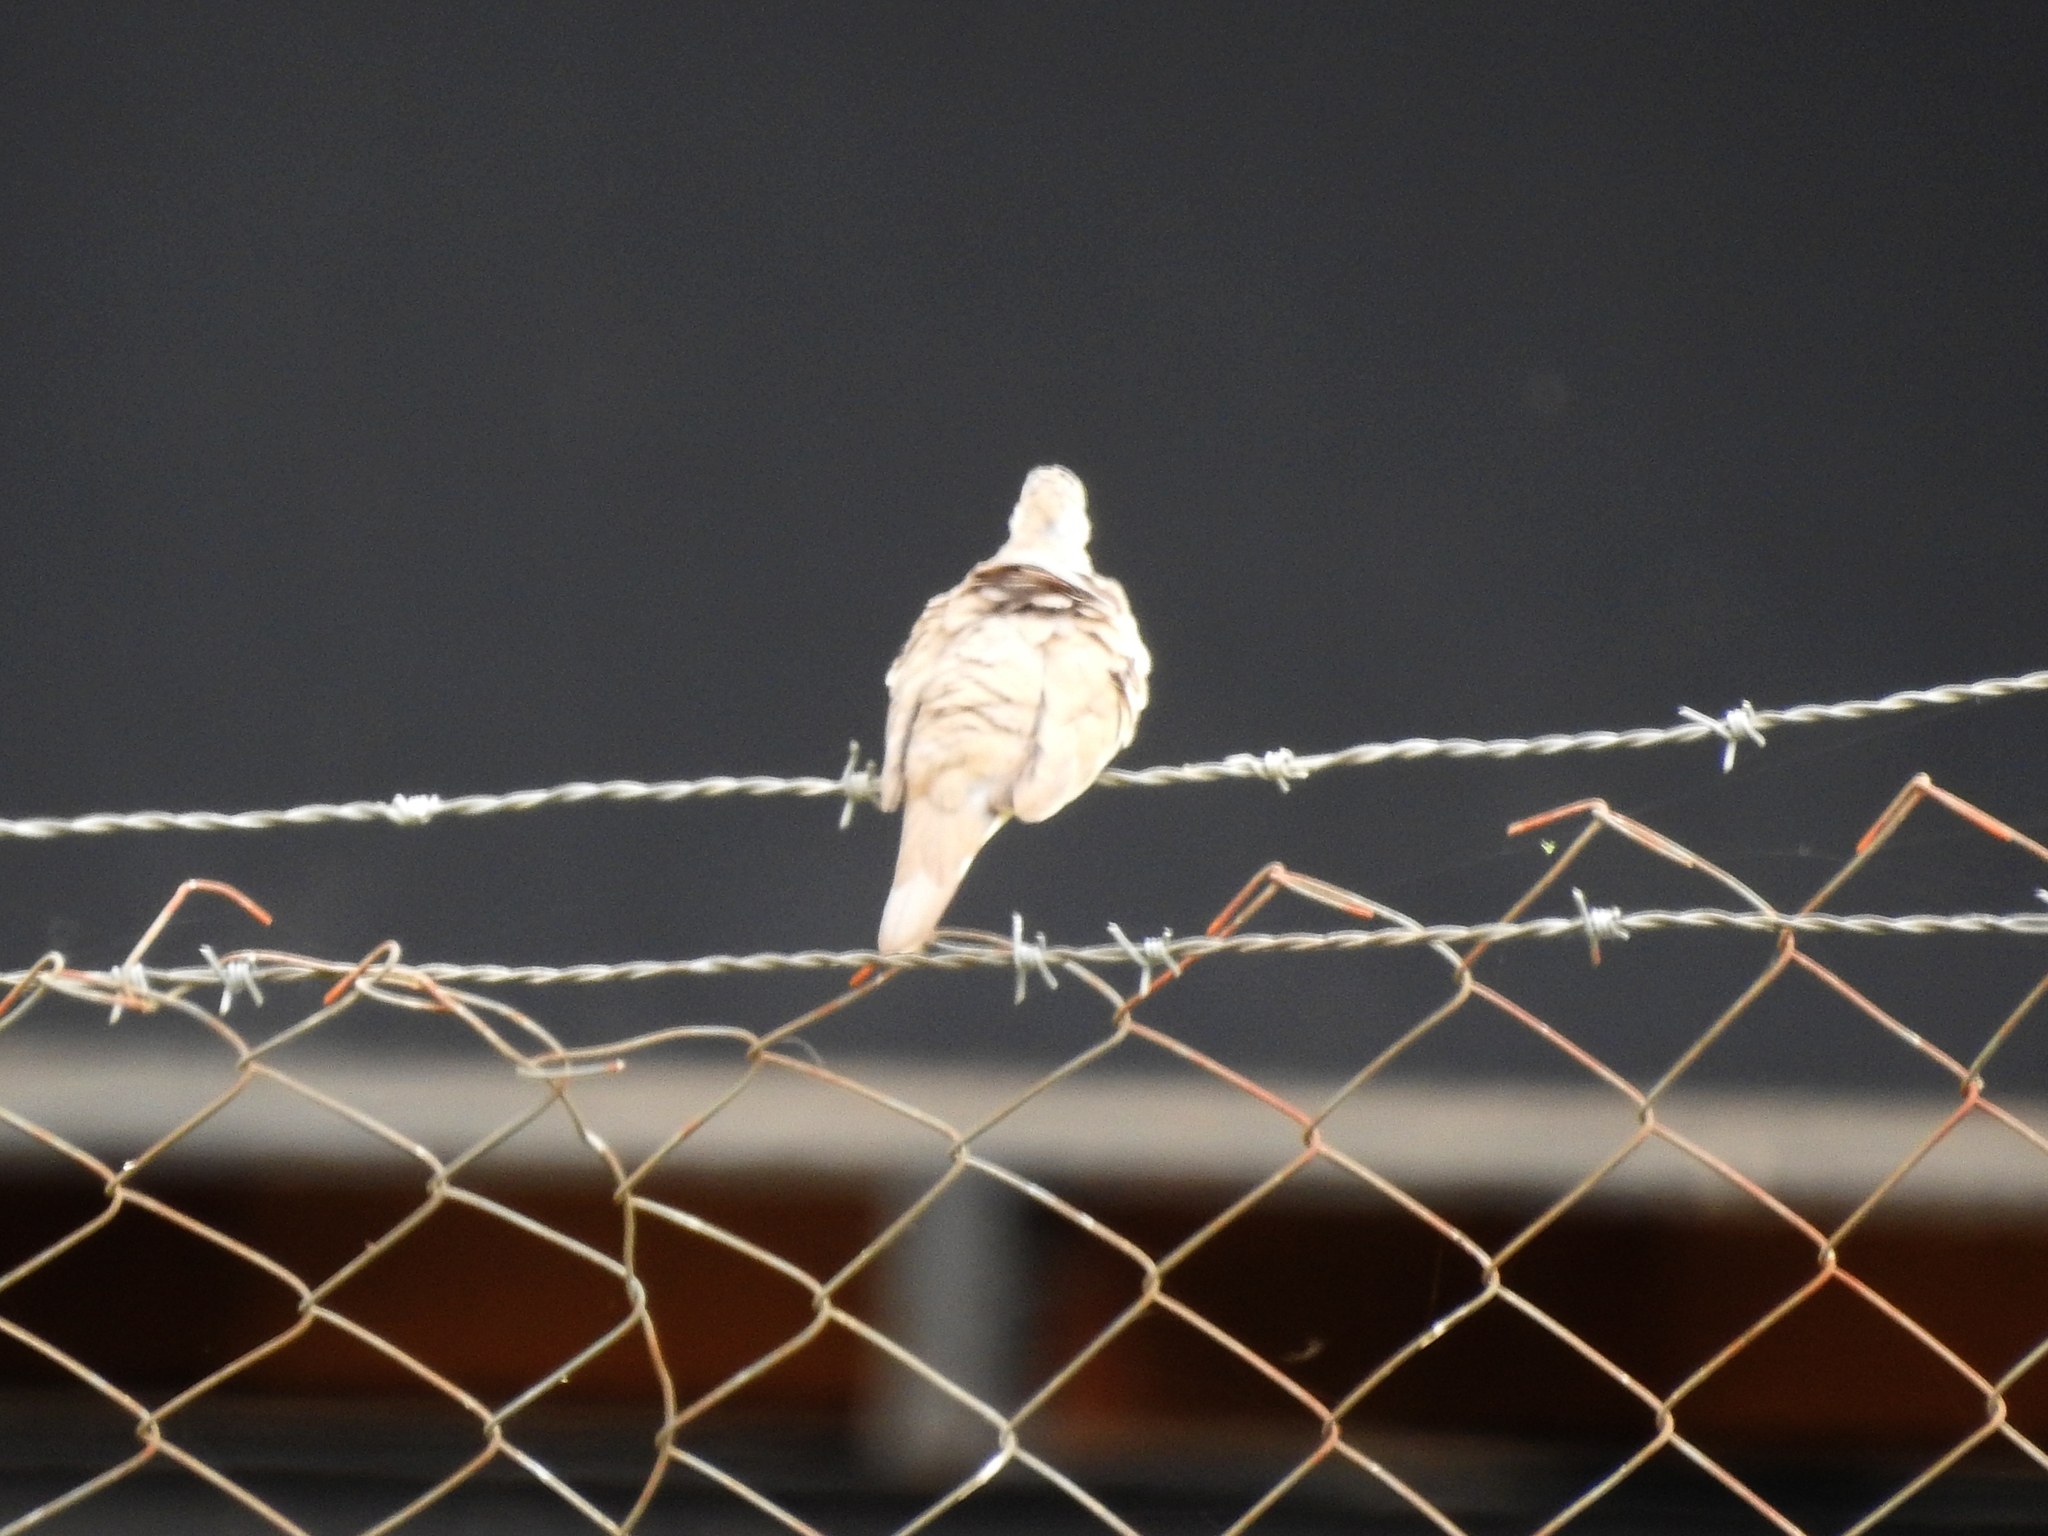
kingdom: Animalia
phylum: Chordata
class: Aves
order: Columbiformes
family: Columbidae
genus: Zenaida
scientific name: Zenaida auriculata
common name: Eared dove
